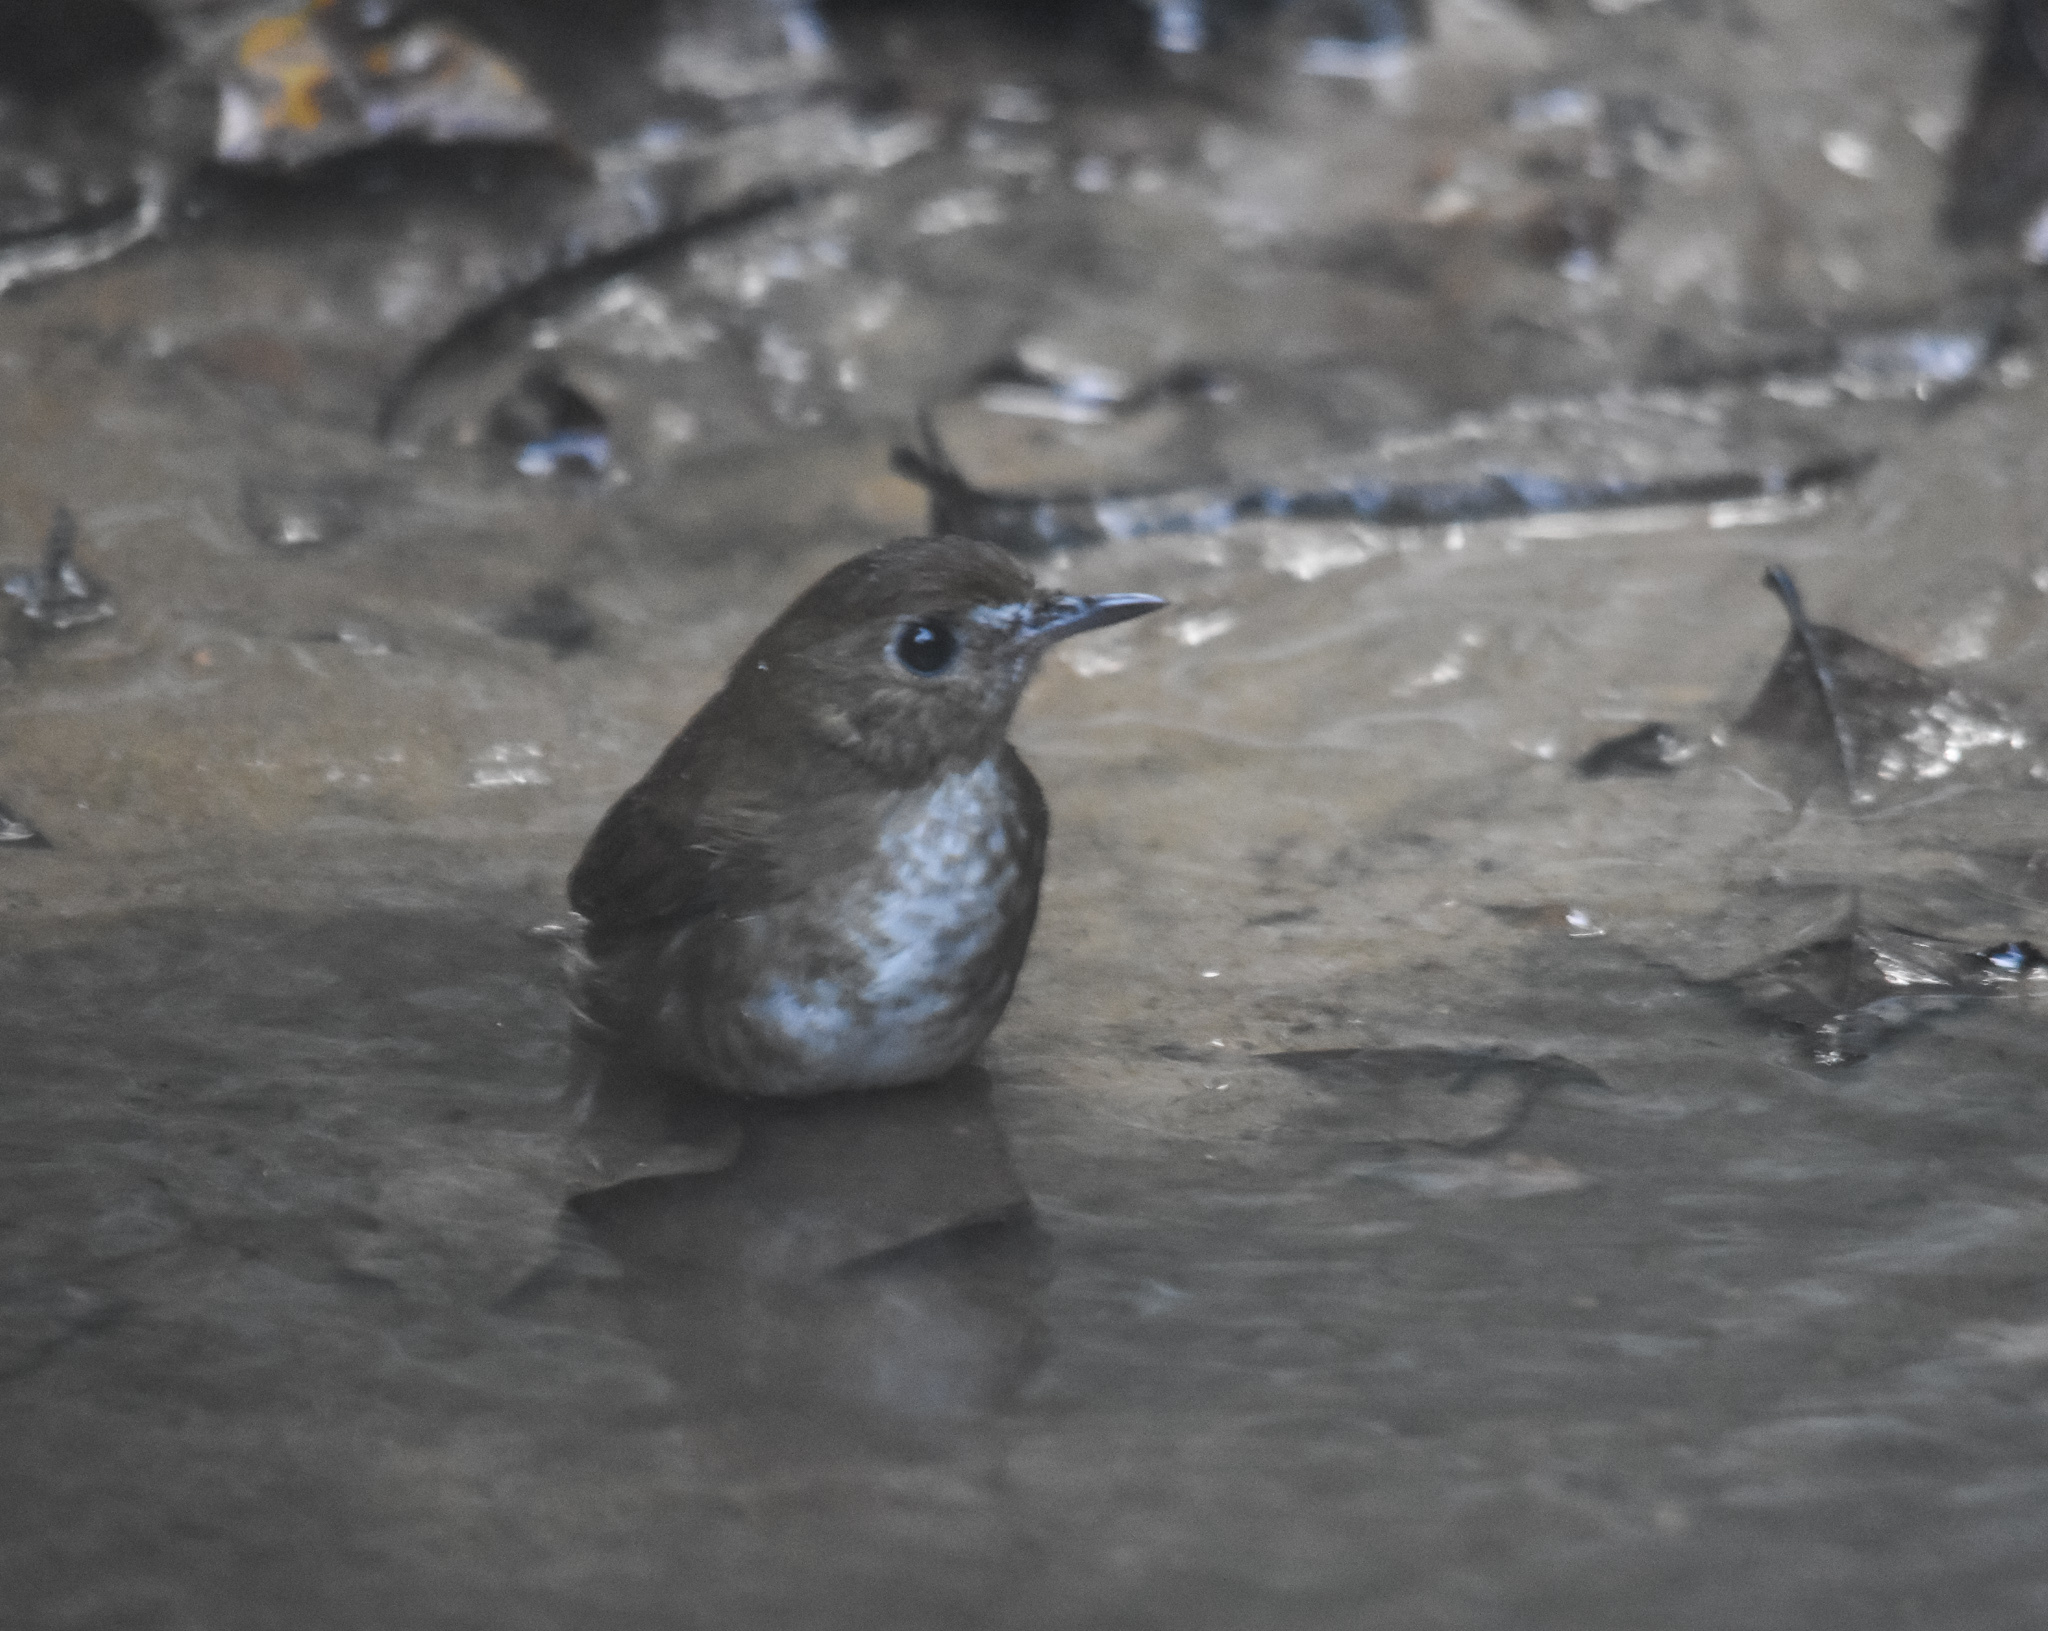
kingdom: Animalia
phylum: Chordata
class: Aves
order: Passeriformes
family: Muscicapidae
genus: Brachypteryx
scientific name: Brachypteryx leucophris
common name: Lesser shortwing
